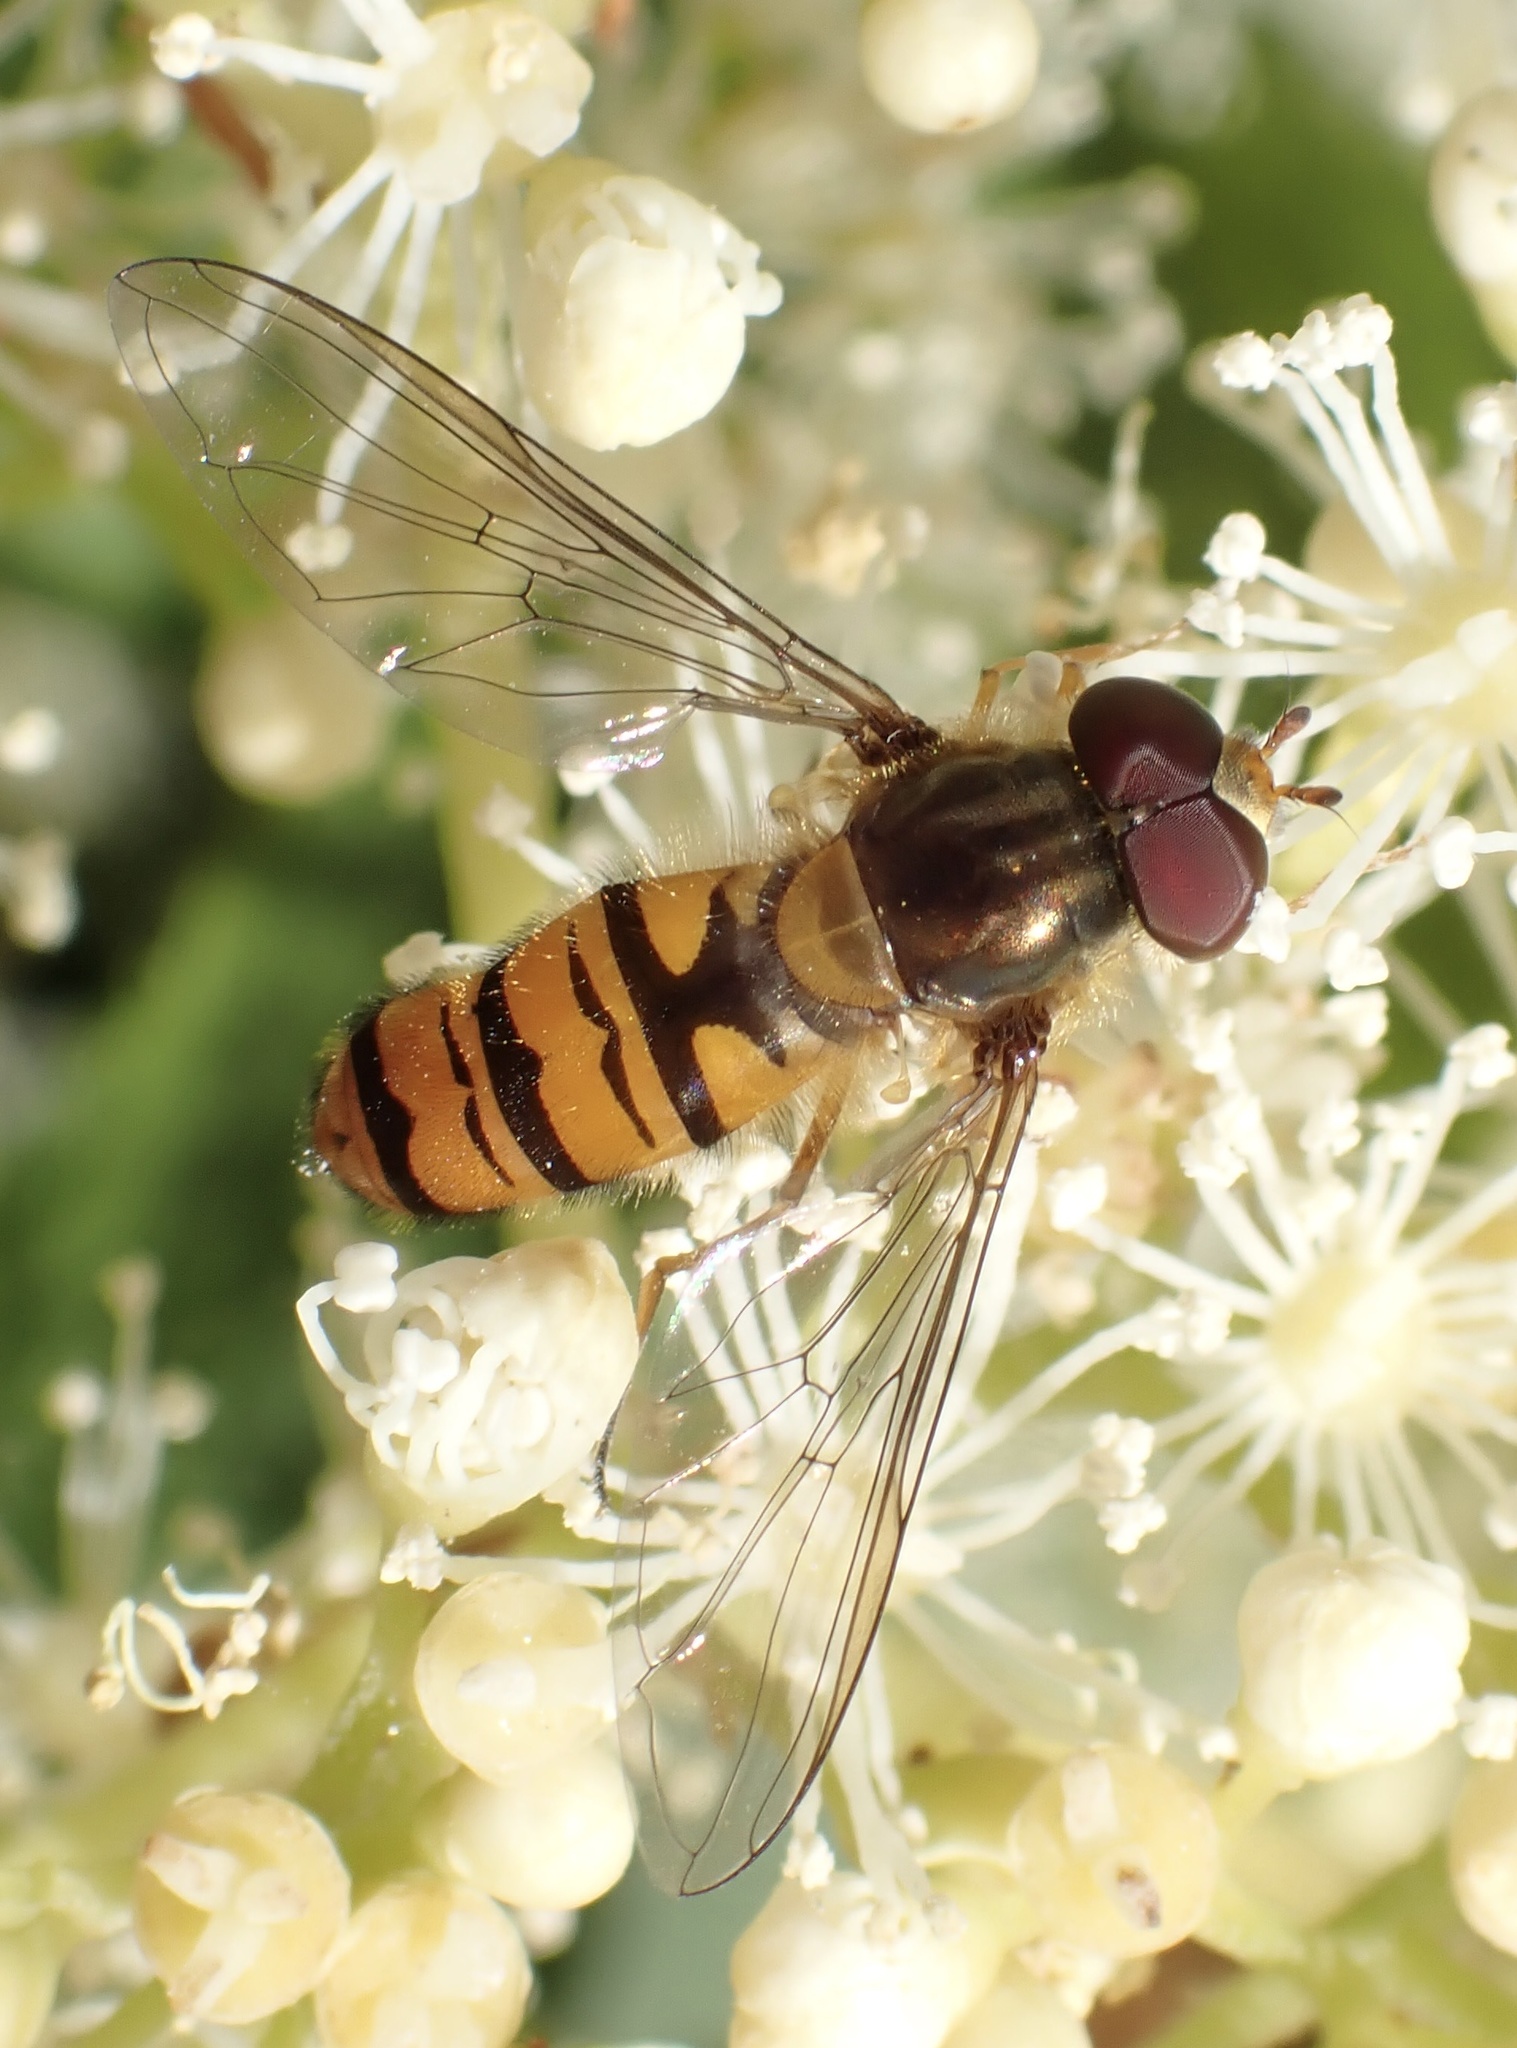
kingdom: Animalia
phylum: Arthropoda
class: Insecta
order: Diptera
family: Syrphidae
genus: Episyrphus
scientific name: Episyrphus balteatus
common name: Marmalade hoverfly
